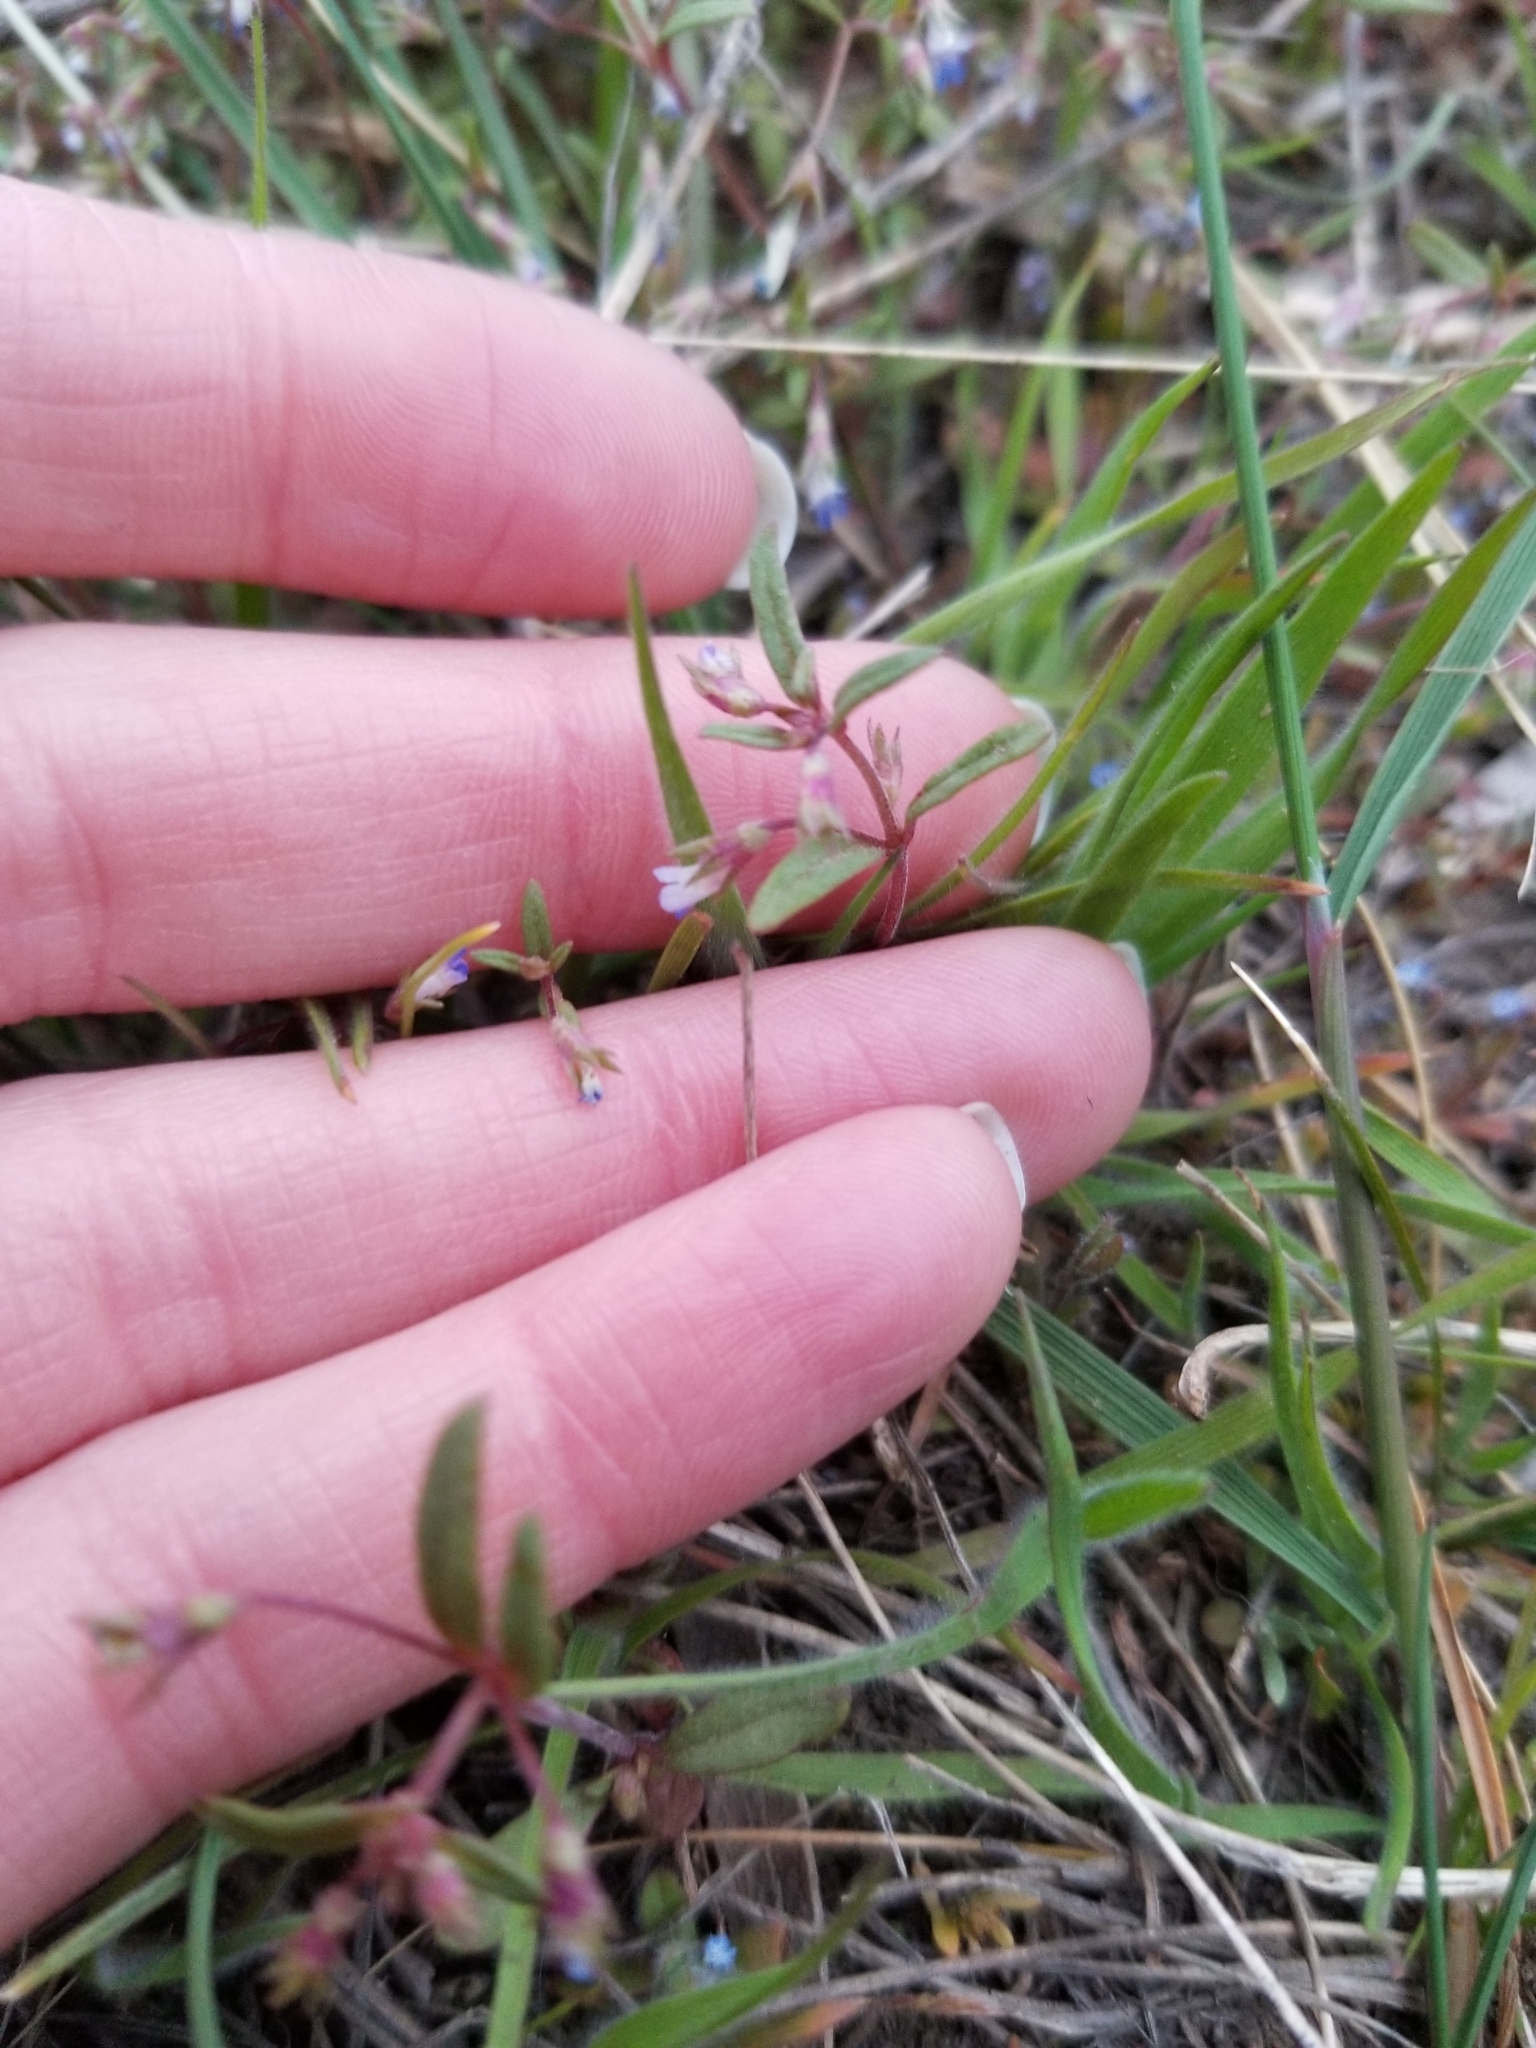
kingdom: Plantae
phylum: Tracheophyta
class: Magnoliopsida
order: Lamiales
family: Plantaginaceae
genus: Collinsia
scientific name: Collinsia parviflora
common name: Blue-lips
